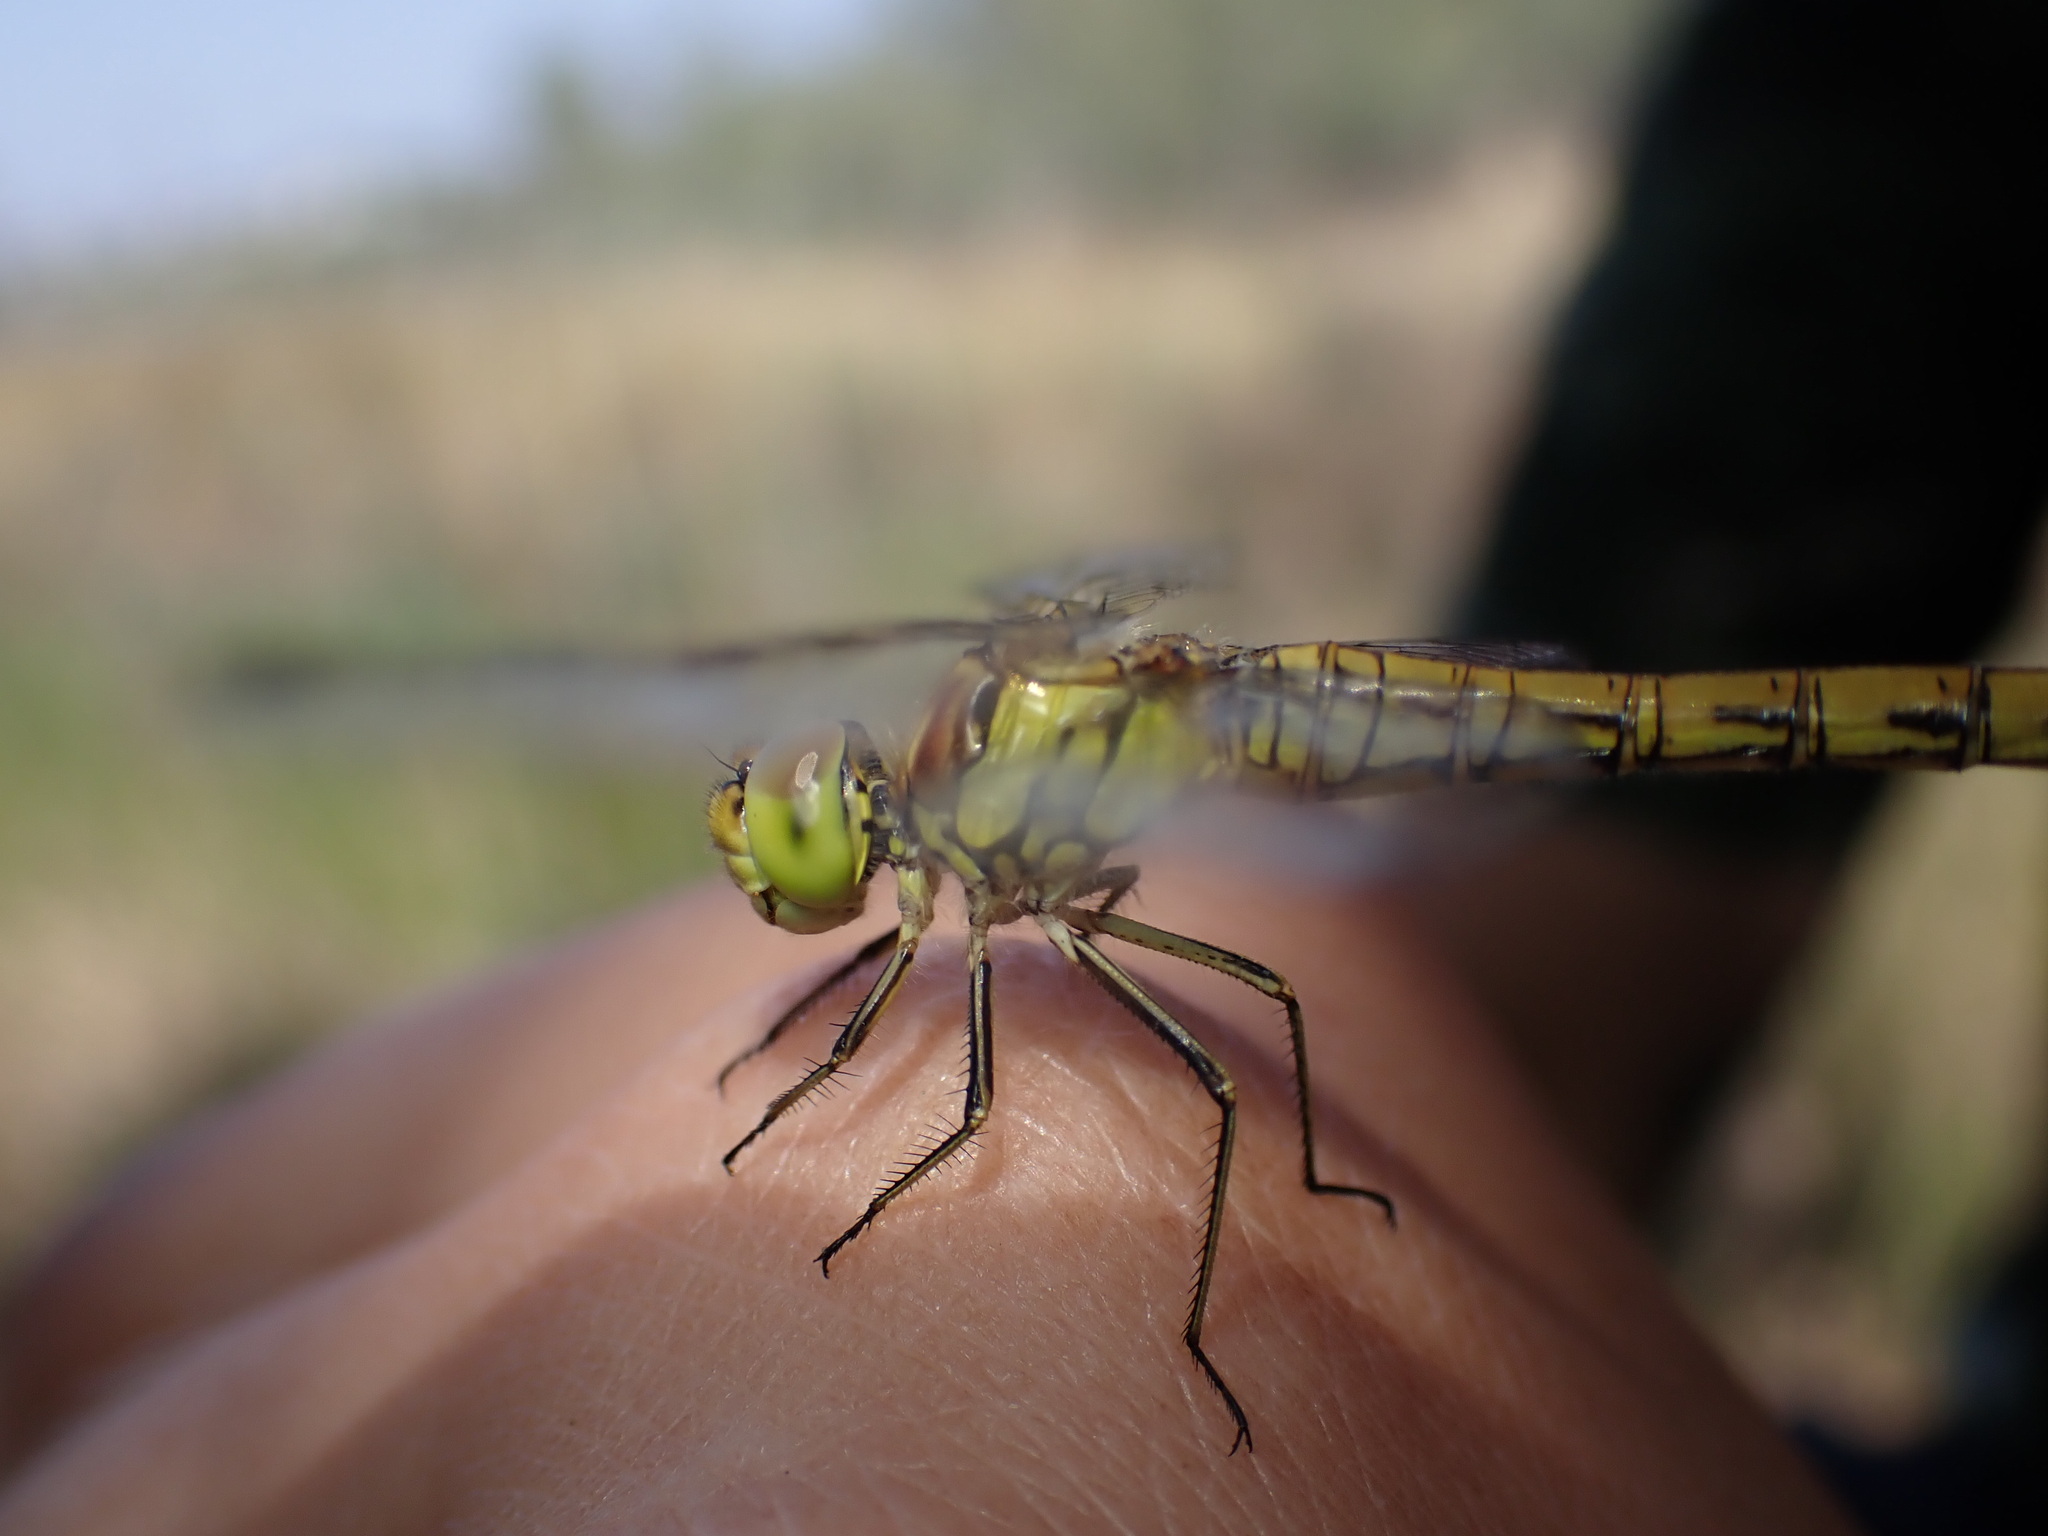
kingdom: Animalia
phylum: Arthropoda
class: Insecta
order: Odonata
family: Libellulidae
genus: Sympetrum
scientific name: Sympetrum striolatum
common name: Common darter
